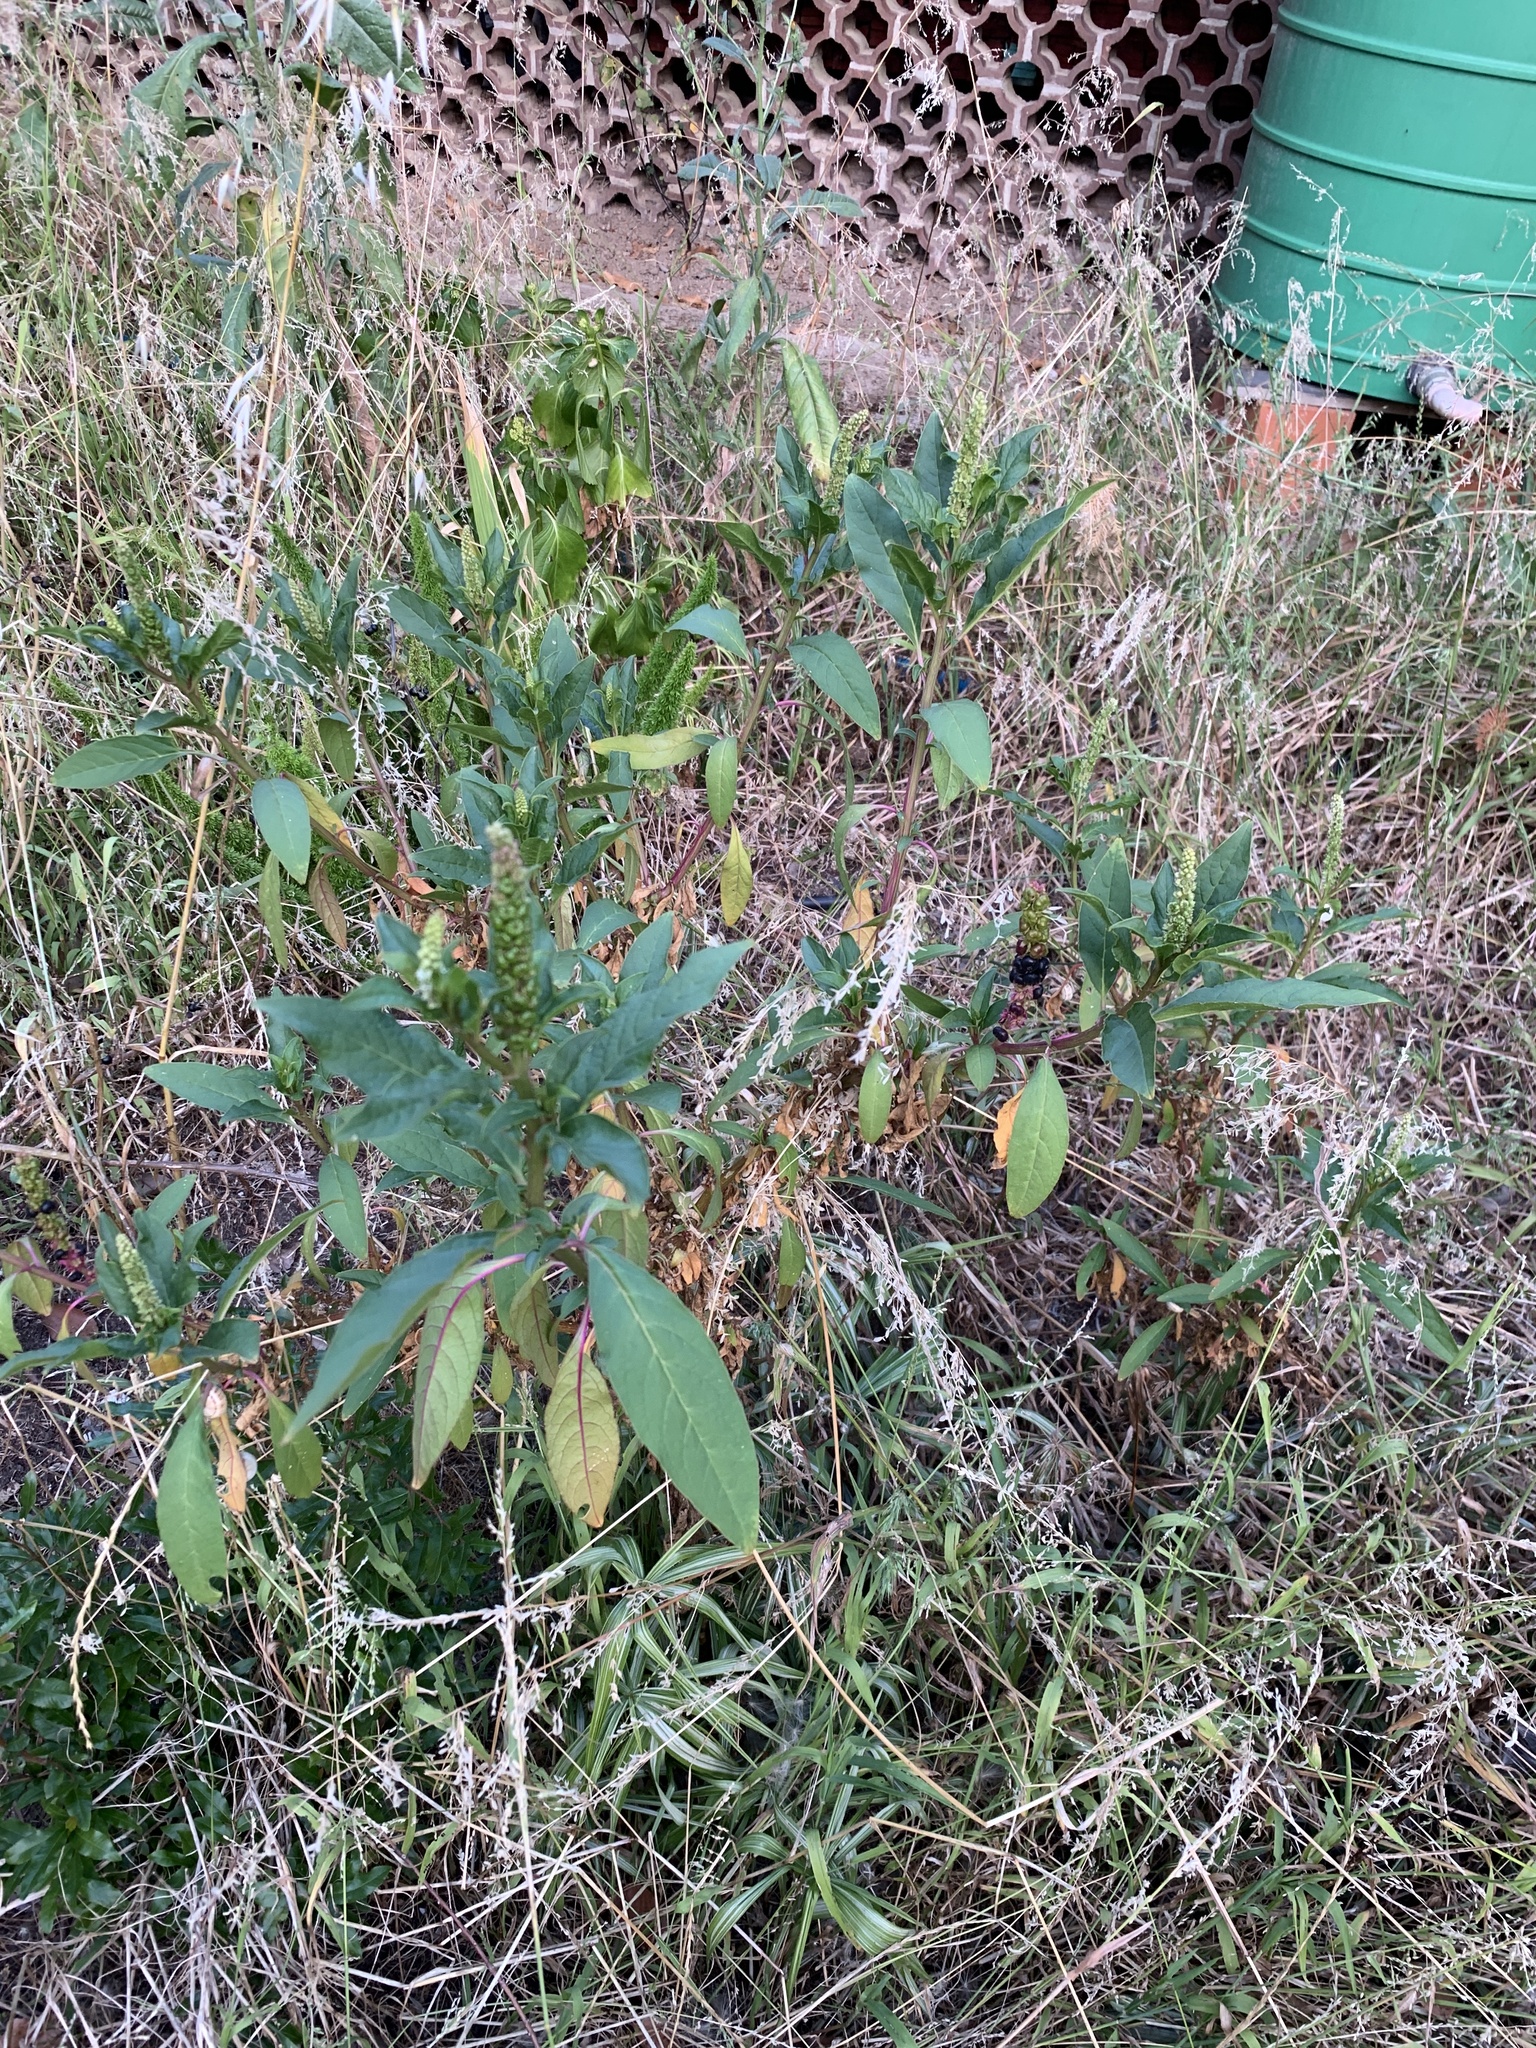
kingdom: Plantae
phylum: Tracheophyta
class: Magnoliopsida
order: Caryophyllales
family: Phytolaccaceae
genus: Phytolacca
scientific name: Phytolacca icosandra
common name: Button pokeweed
